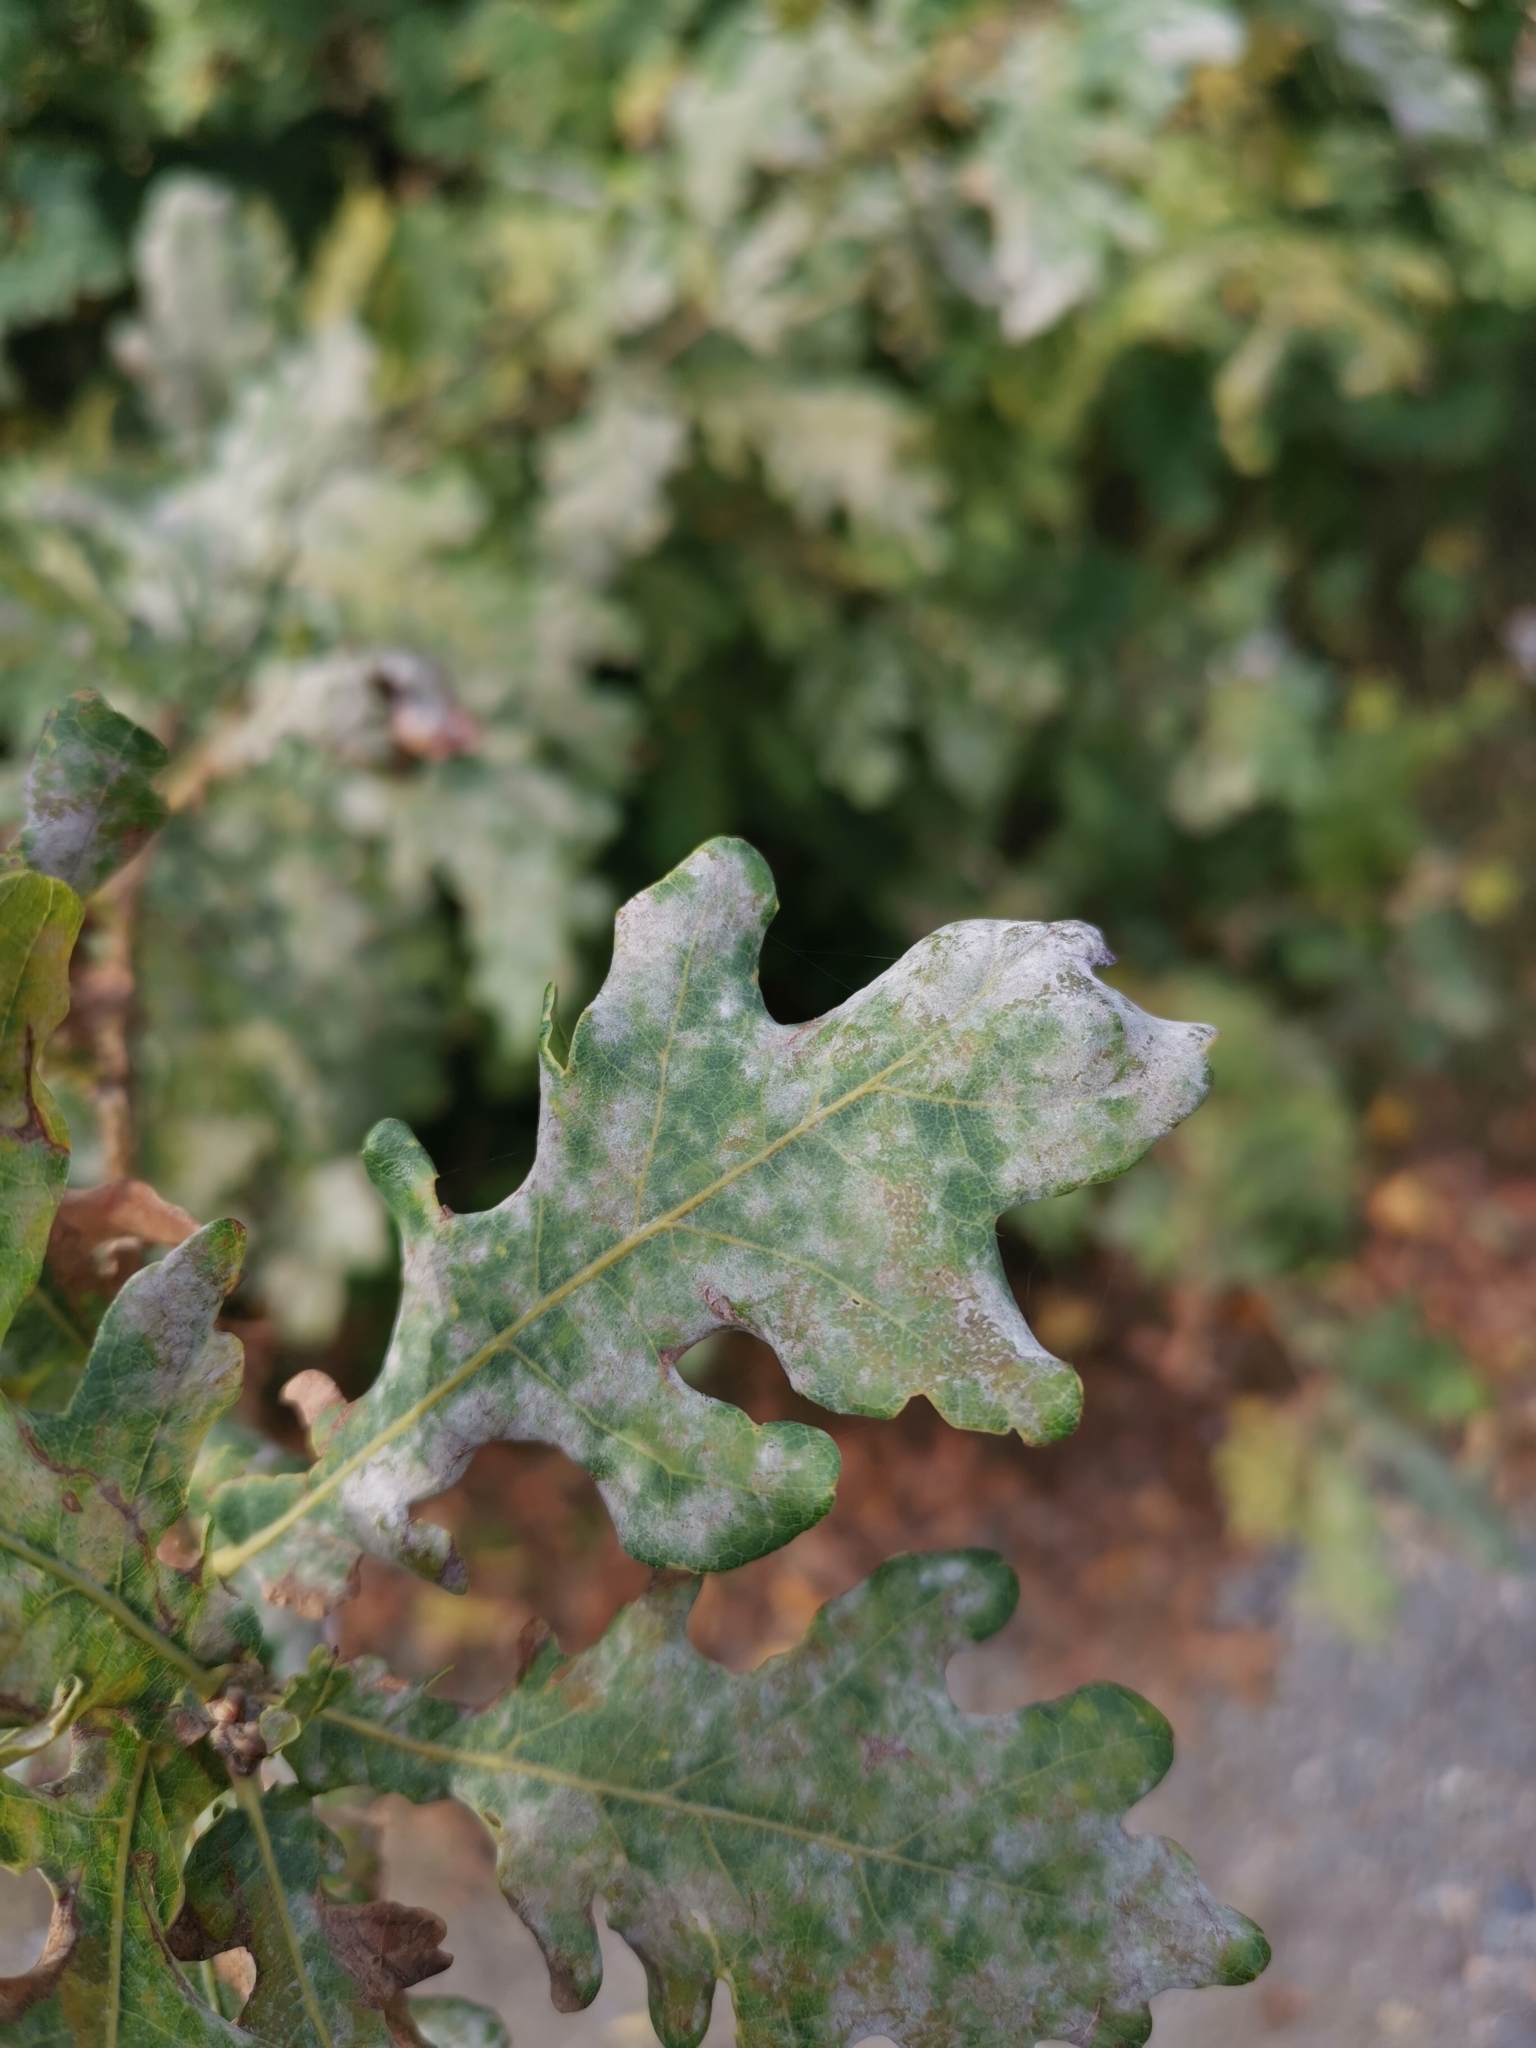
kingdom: Fungi
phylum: Ascomycota
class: Leotiomycetes
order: Helotiales
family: Erysiphaceae
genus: Erysiphe
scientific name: Erysiphe
